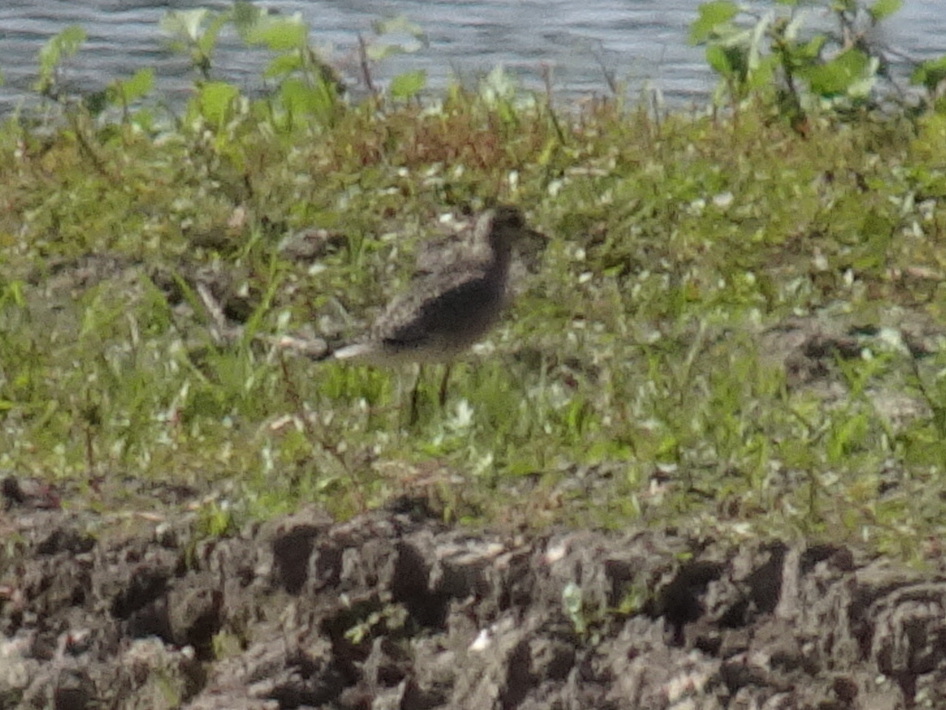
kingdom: Animalia
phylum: Chordata
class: Aves
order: Charadriiformes
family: Charadriidae
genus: Pluvialis
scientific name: Pluvialis dominica
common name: American golden plover
